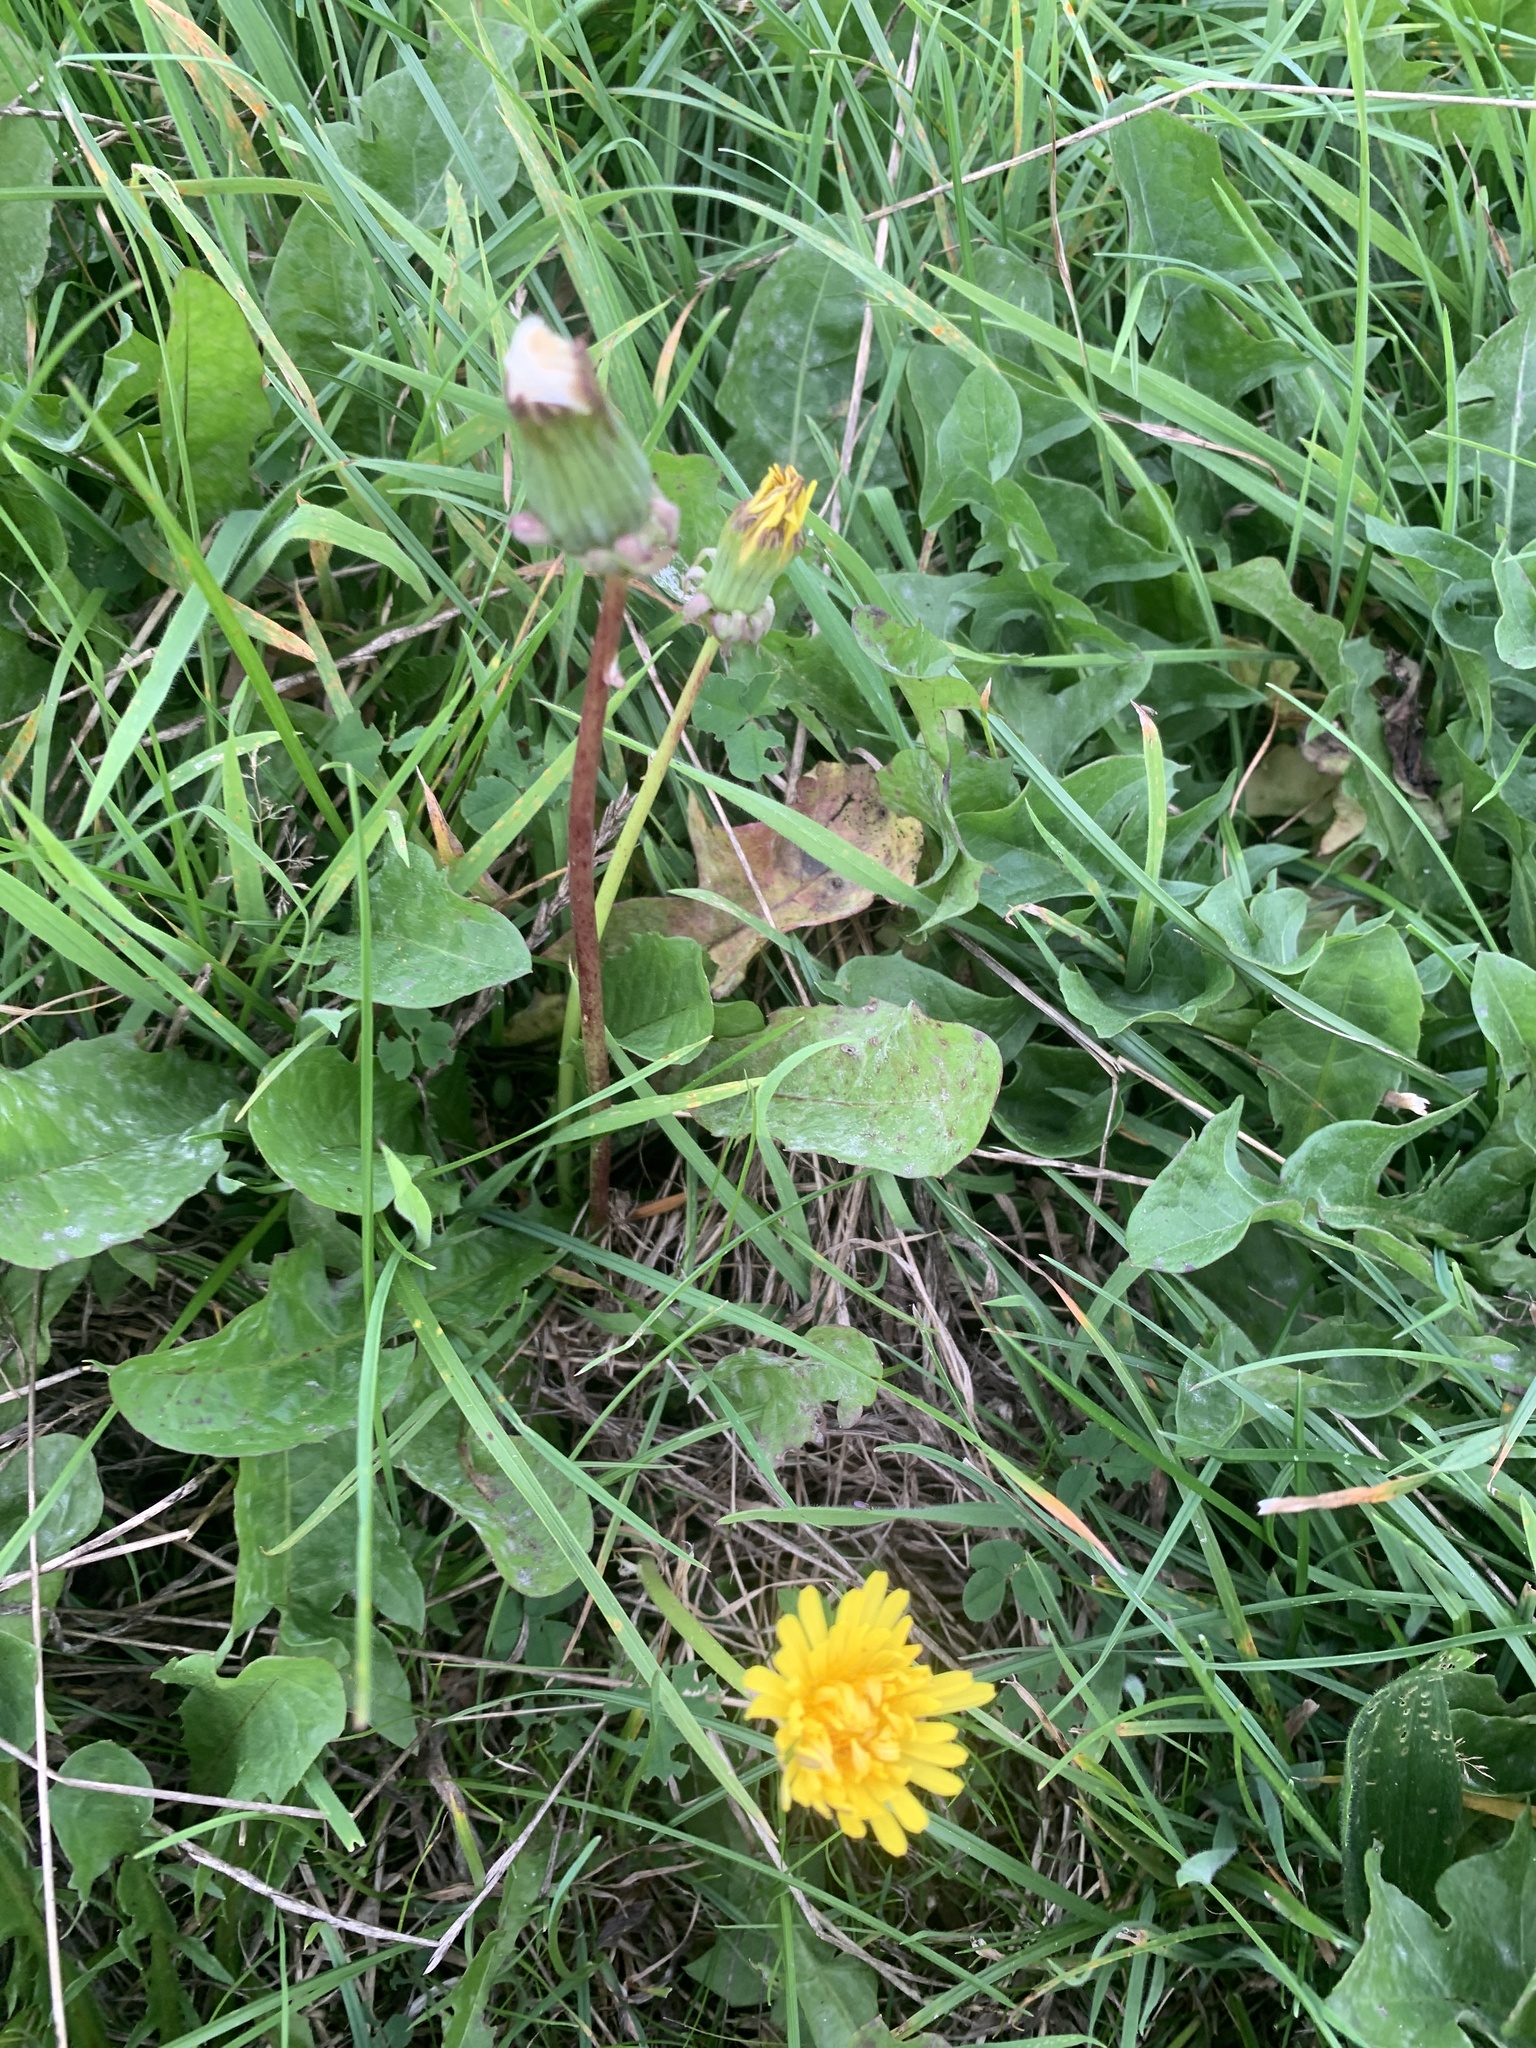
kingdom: Plantae
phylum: Tracheophyta
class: Magnoliopsida
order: Asterales
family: Asteraceae
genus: Taraxacum
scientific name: Taraxacum officinale
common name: Common dandelion
